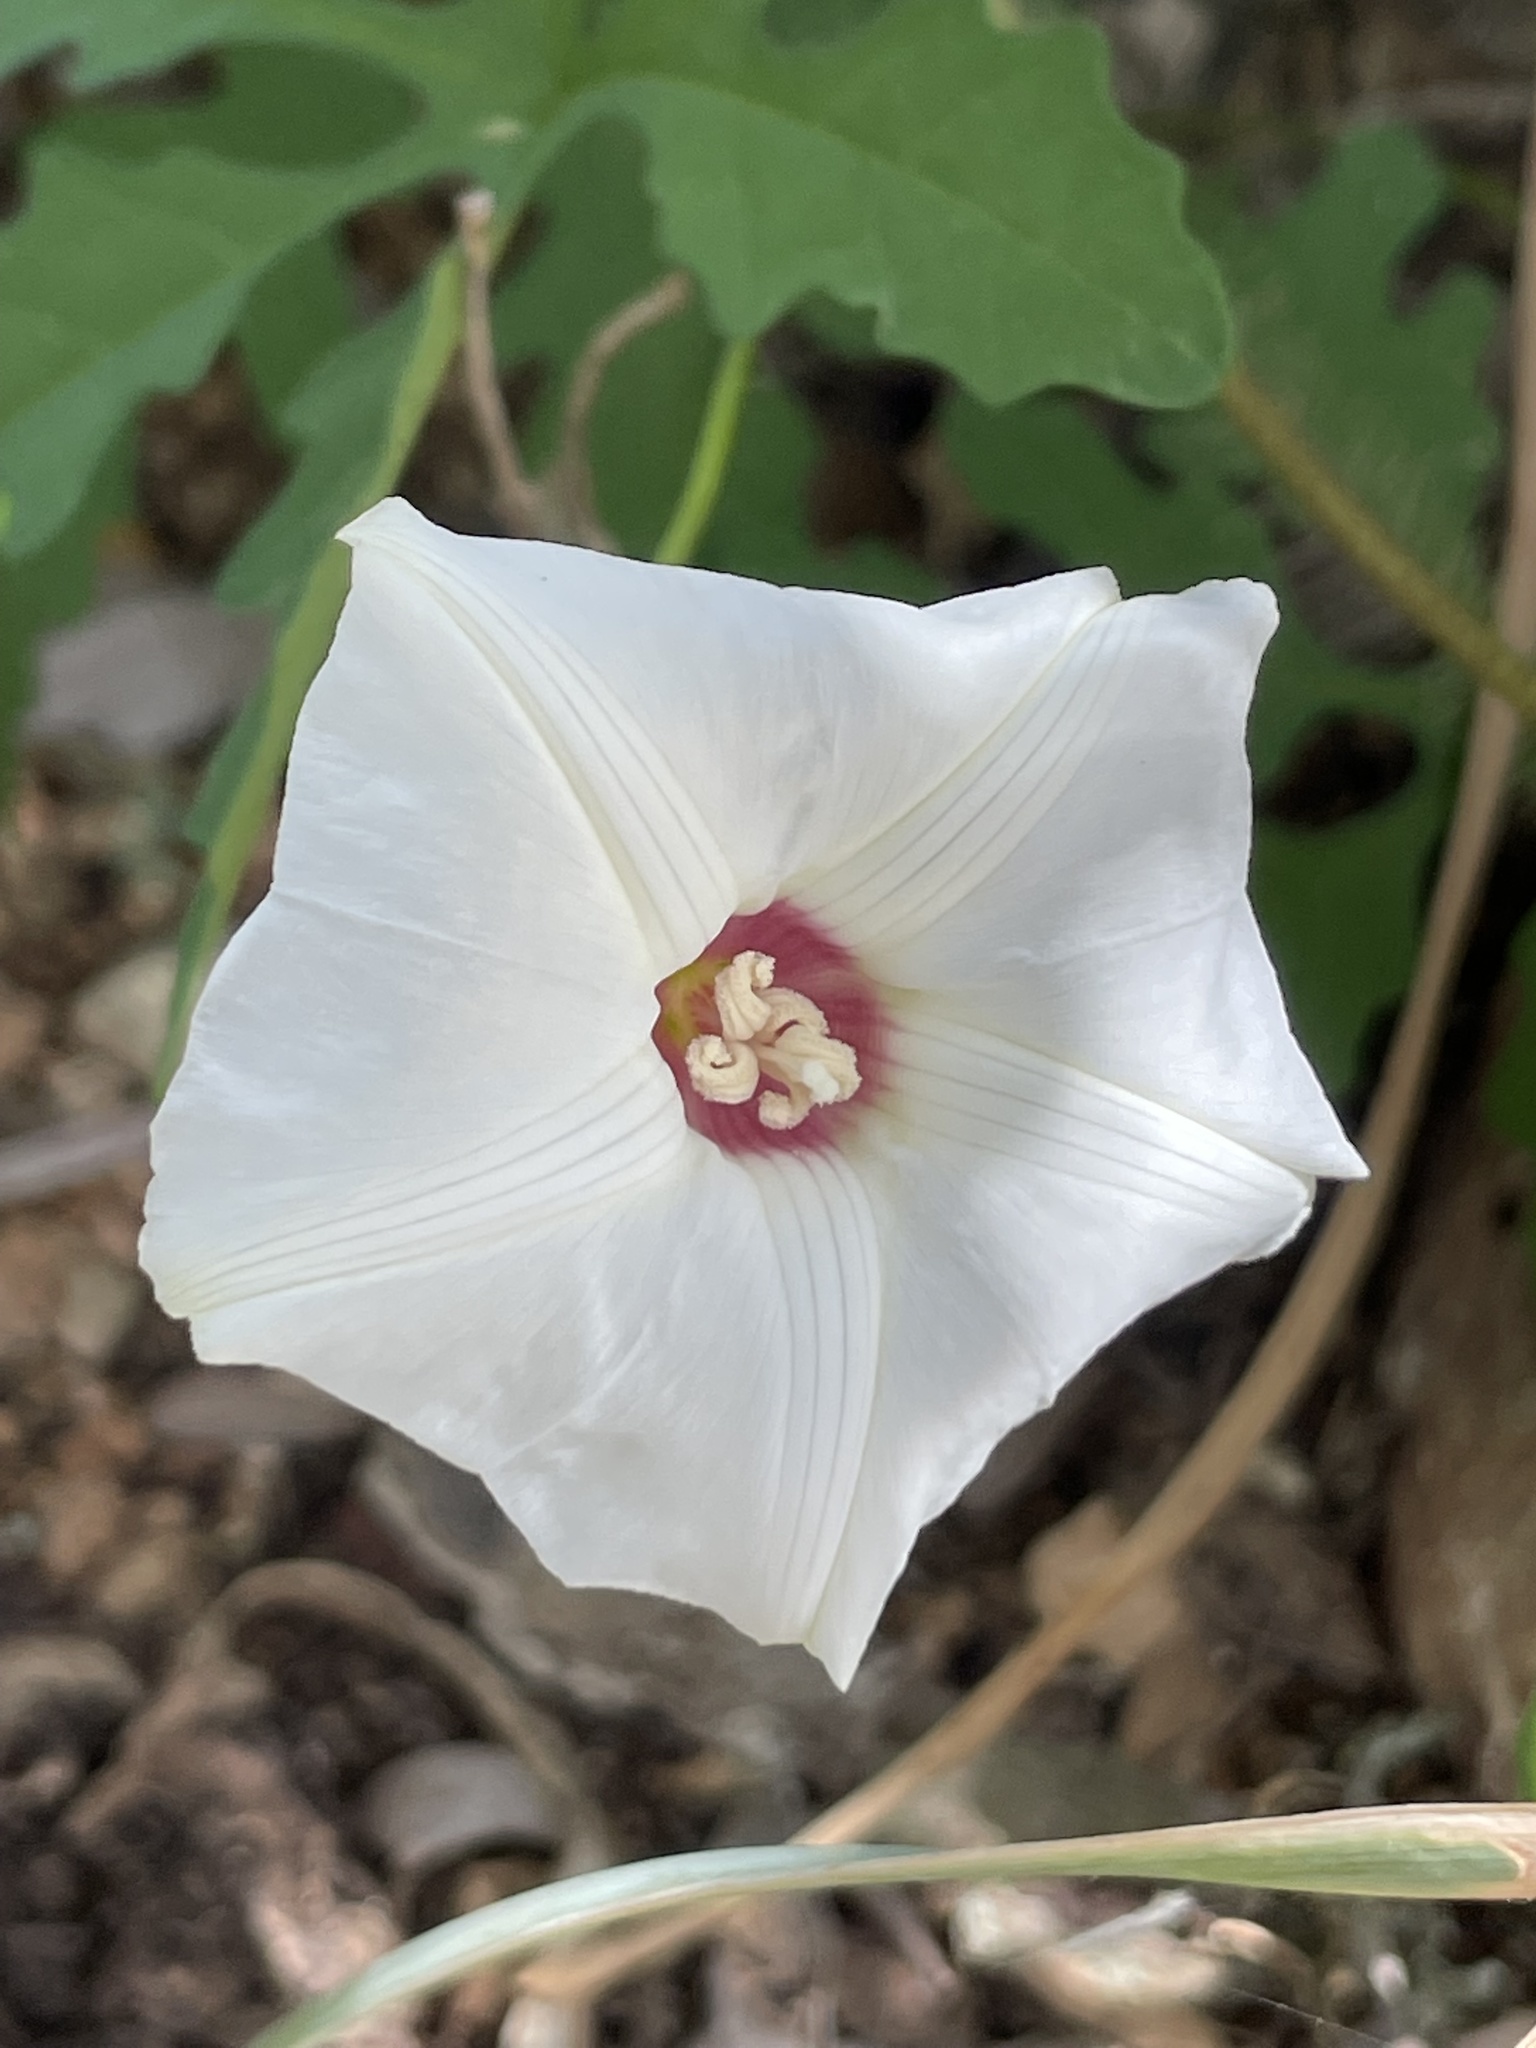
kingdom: Plantae
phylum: Tracheophyta
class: Magnoliopsida
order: Solanales
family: Convolvulaceae
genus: Distimake
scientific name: Distimake dissectus
